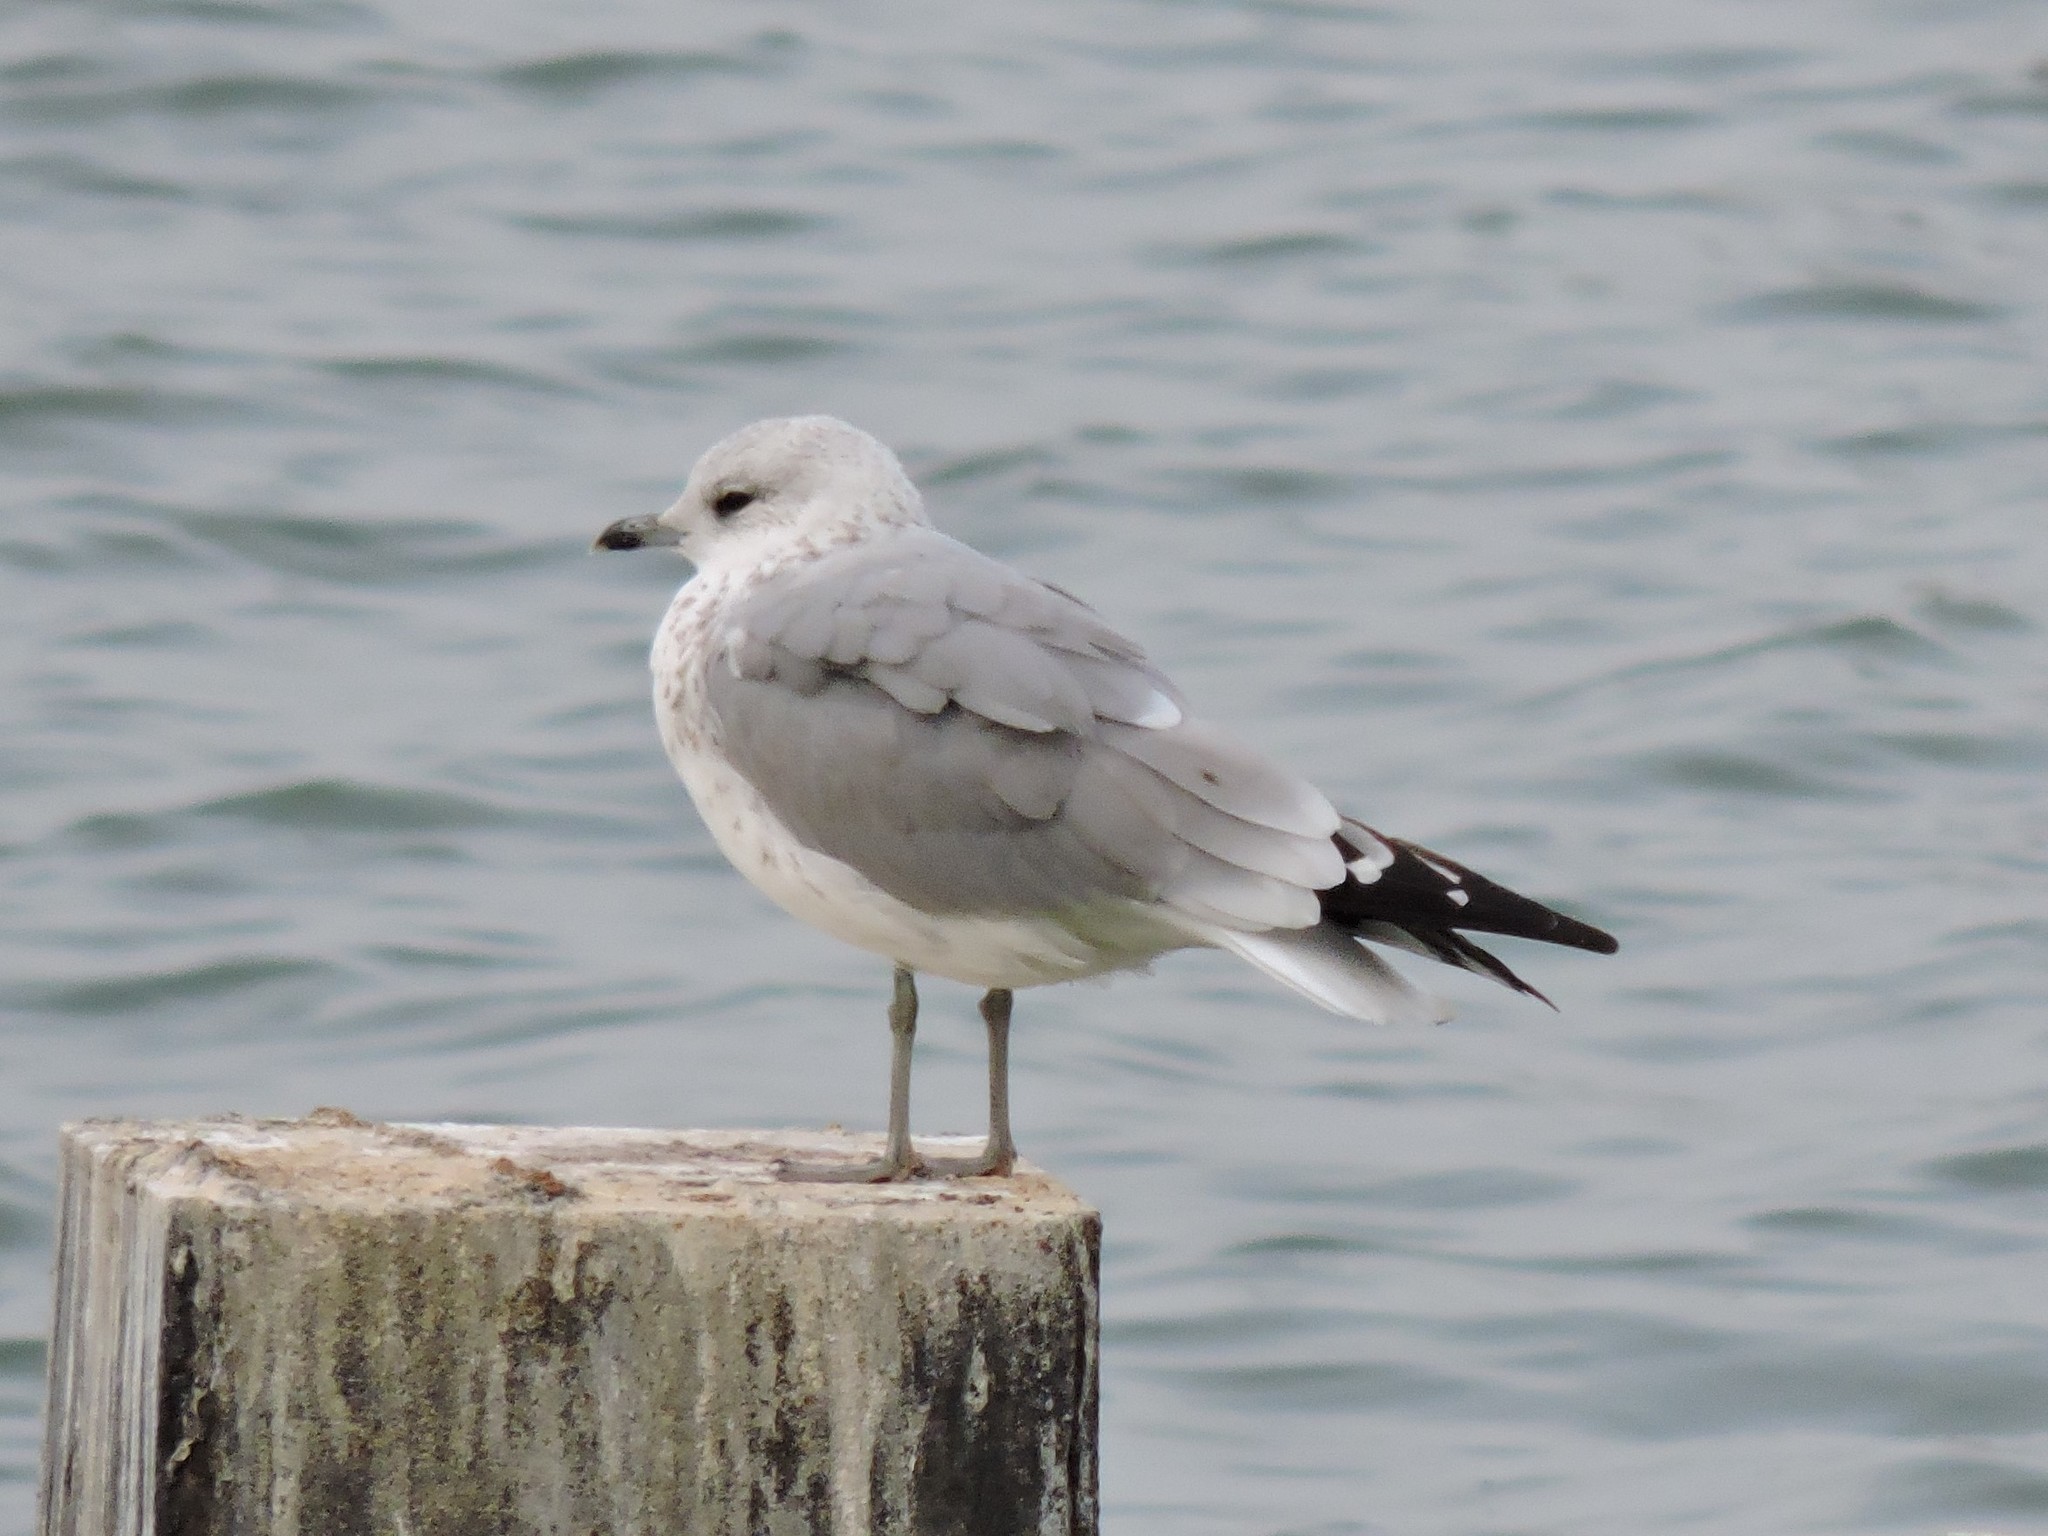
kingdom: Animalia
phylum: Chordata
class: Aves
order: Charadriiformes
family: Laridae
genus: Larus
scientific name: Larus canus
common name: Mew gull
